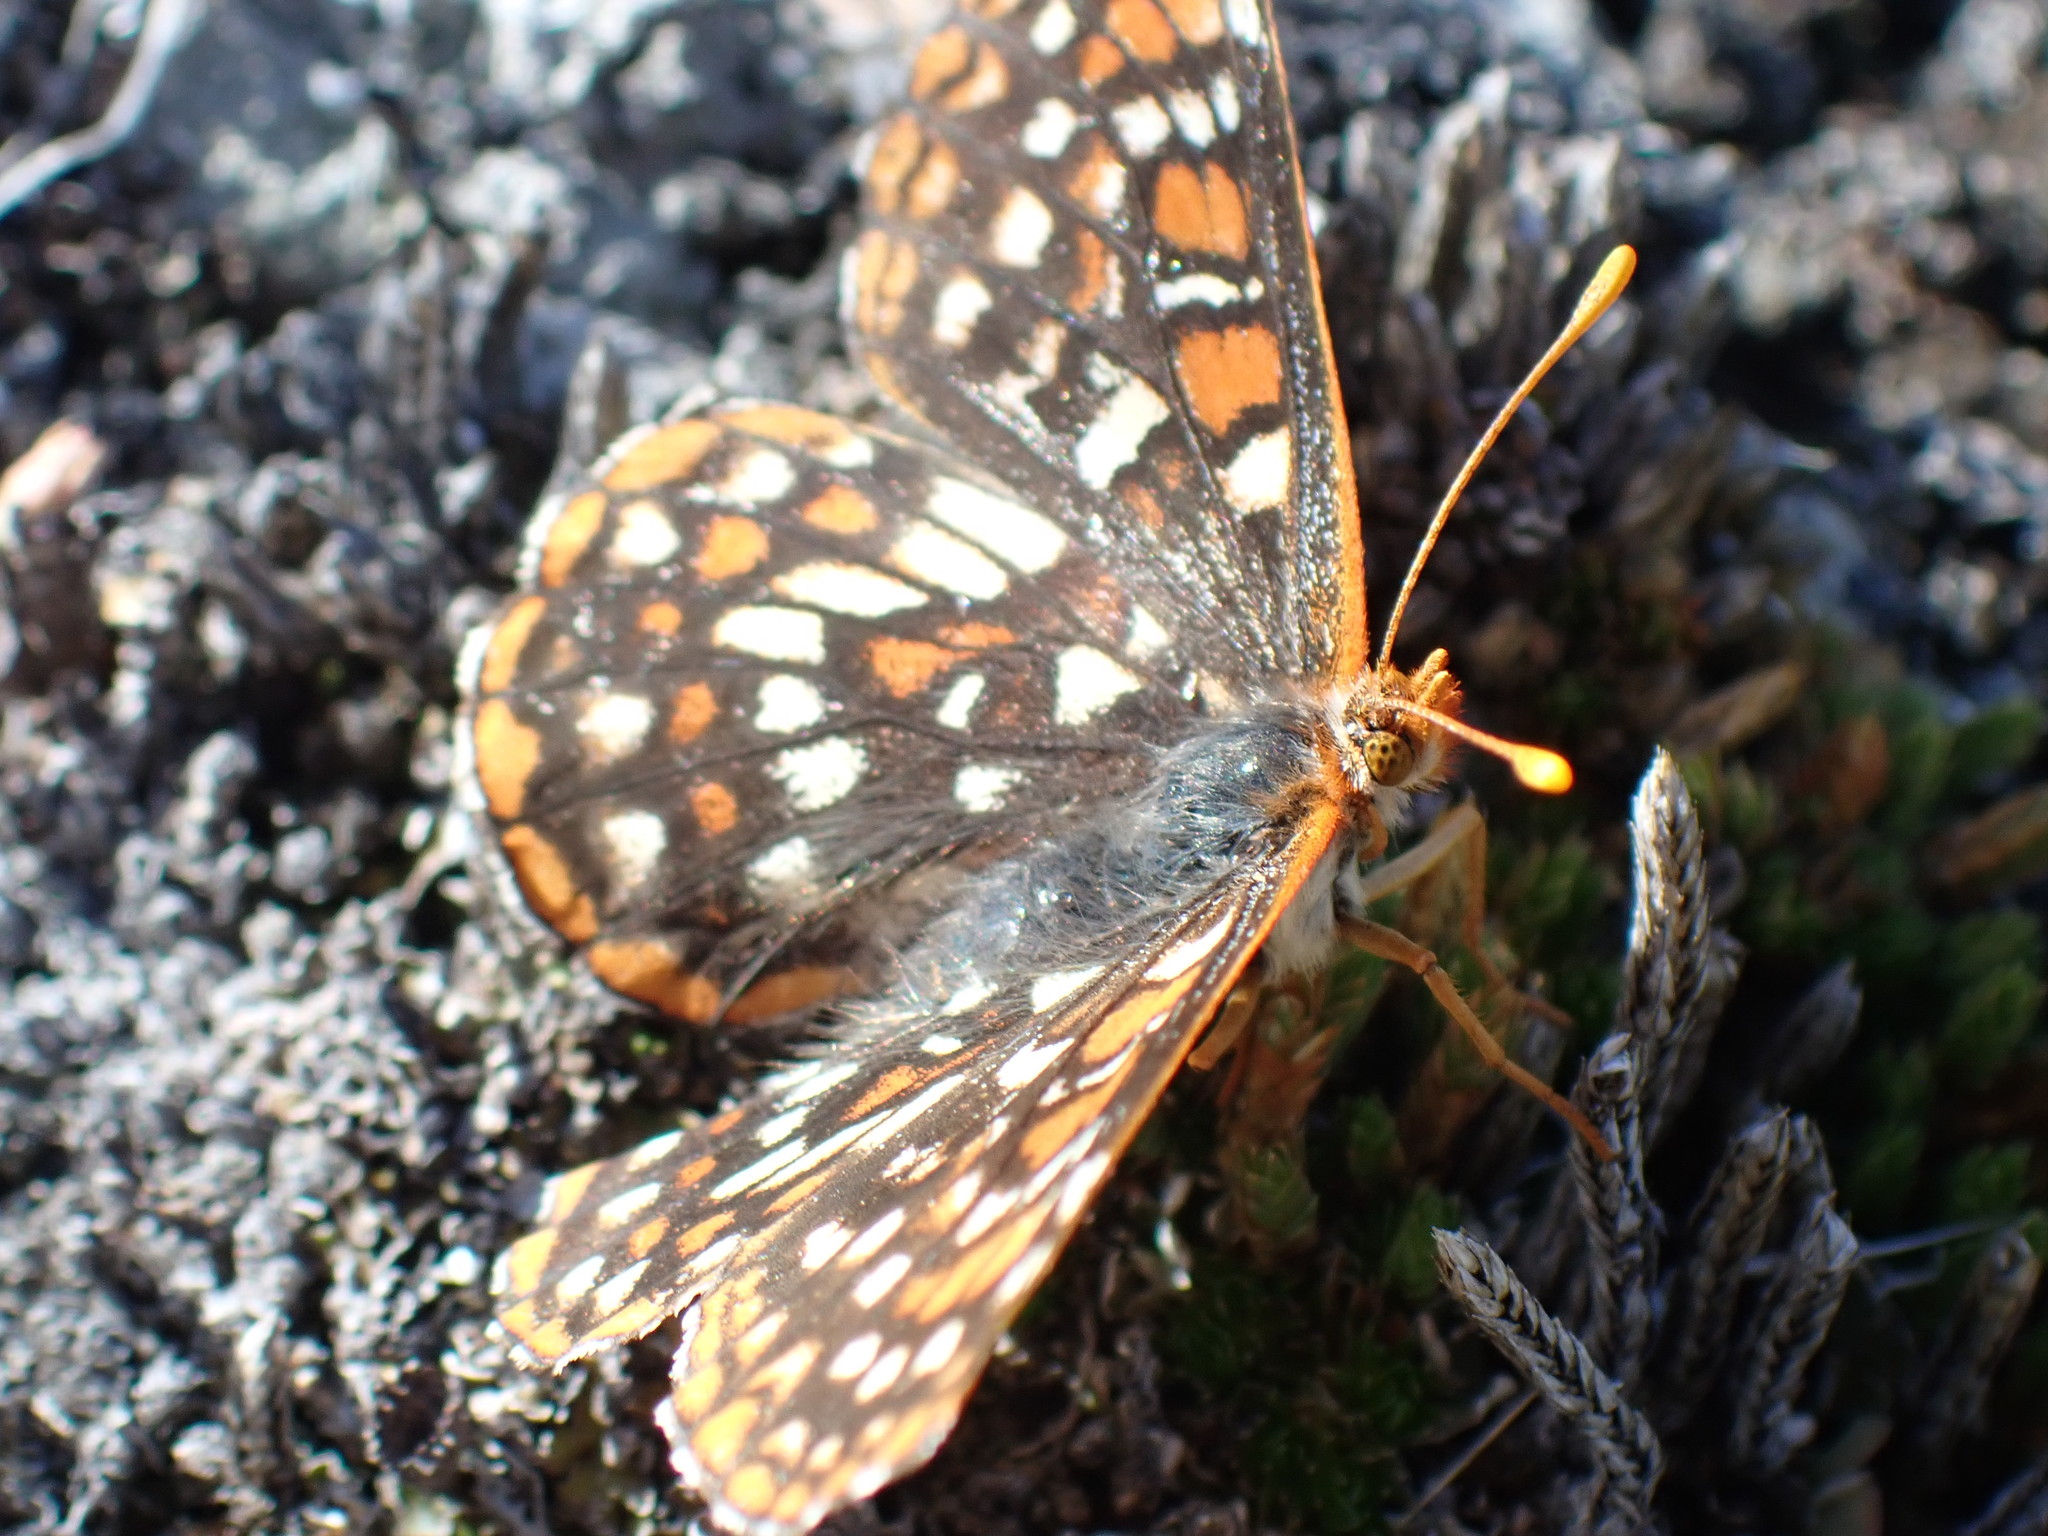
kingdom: Animalia
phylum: Arthropoda
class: Insecta
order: Lepidoptera
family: Nymphalidae
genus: Occidryas
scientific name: Occidryas anicia
